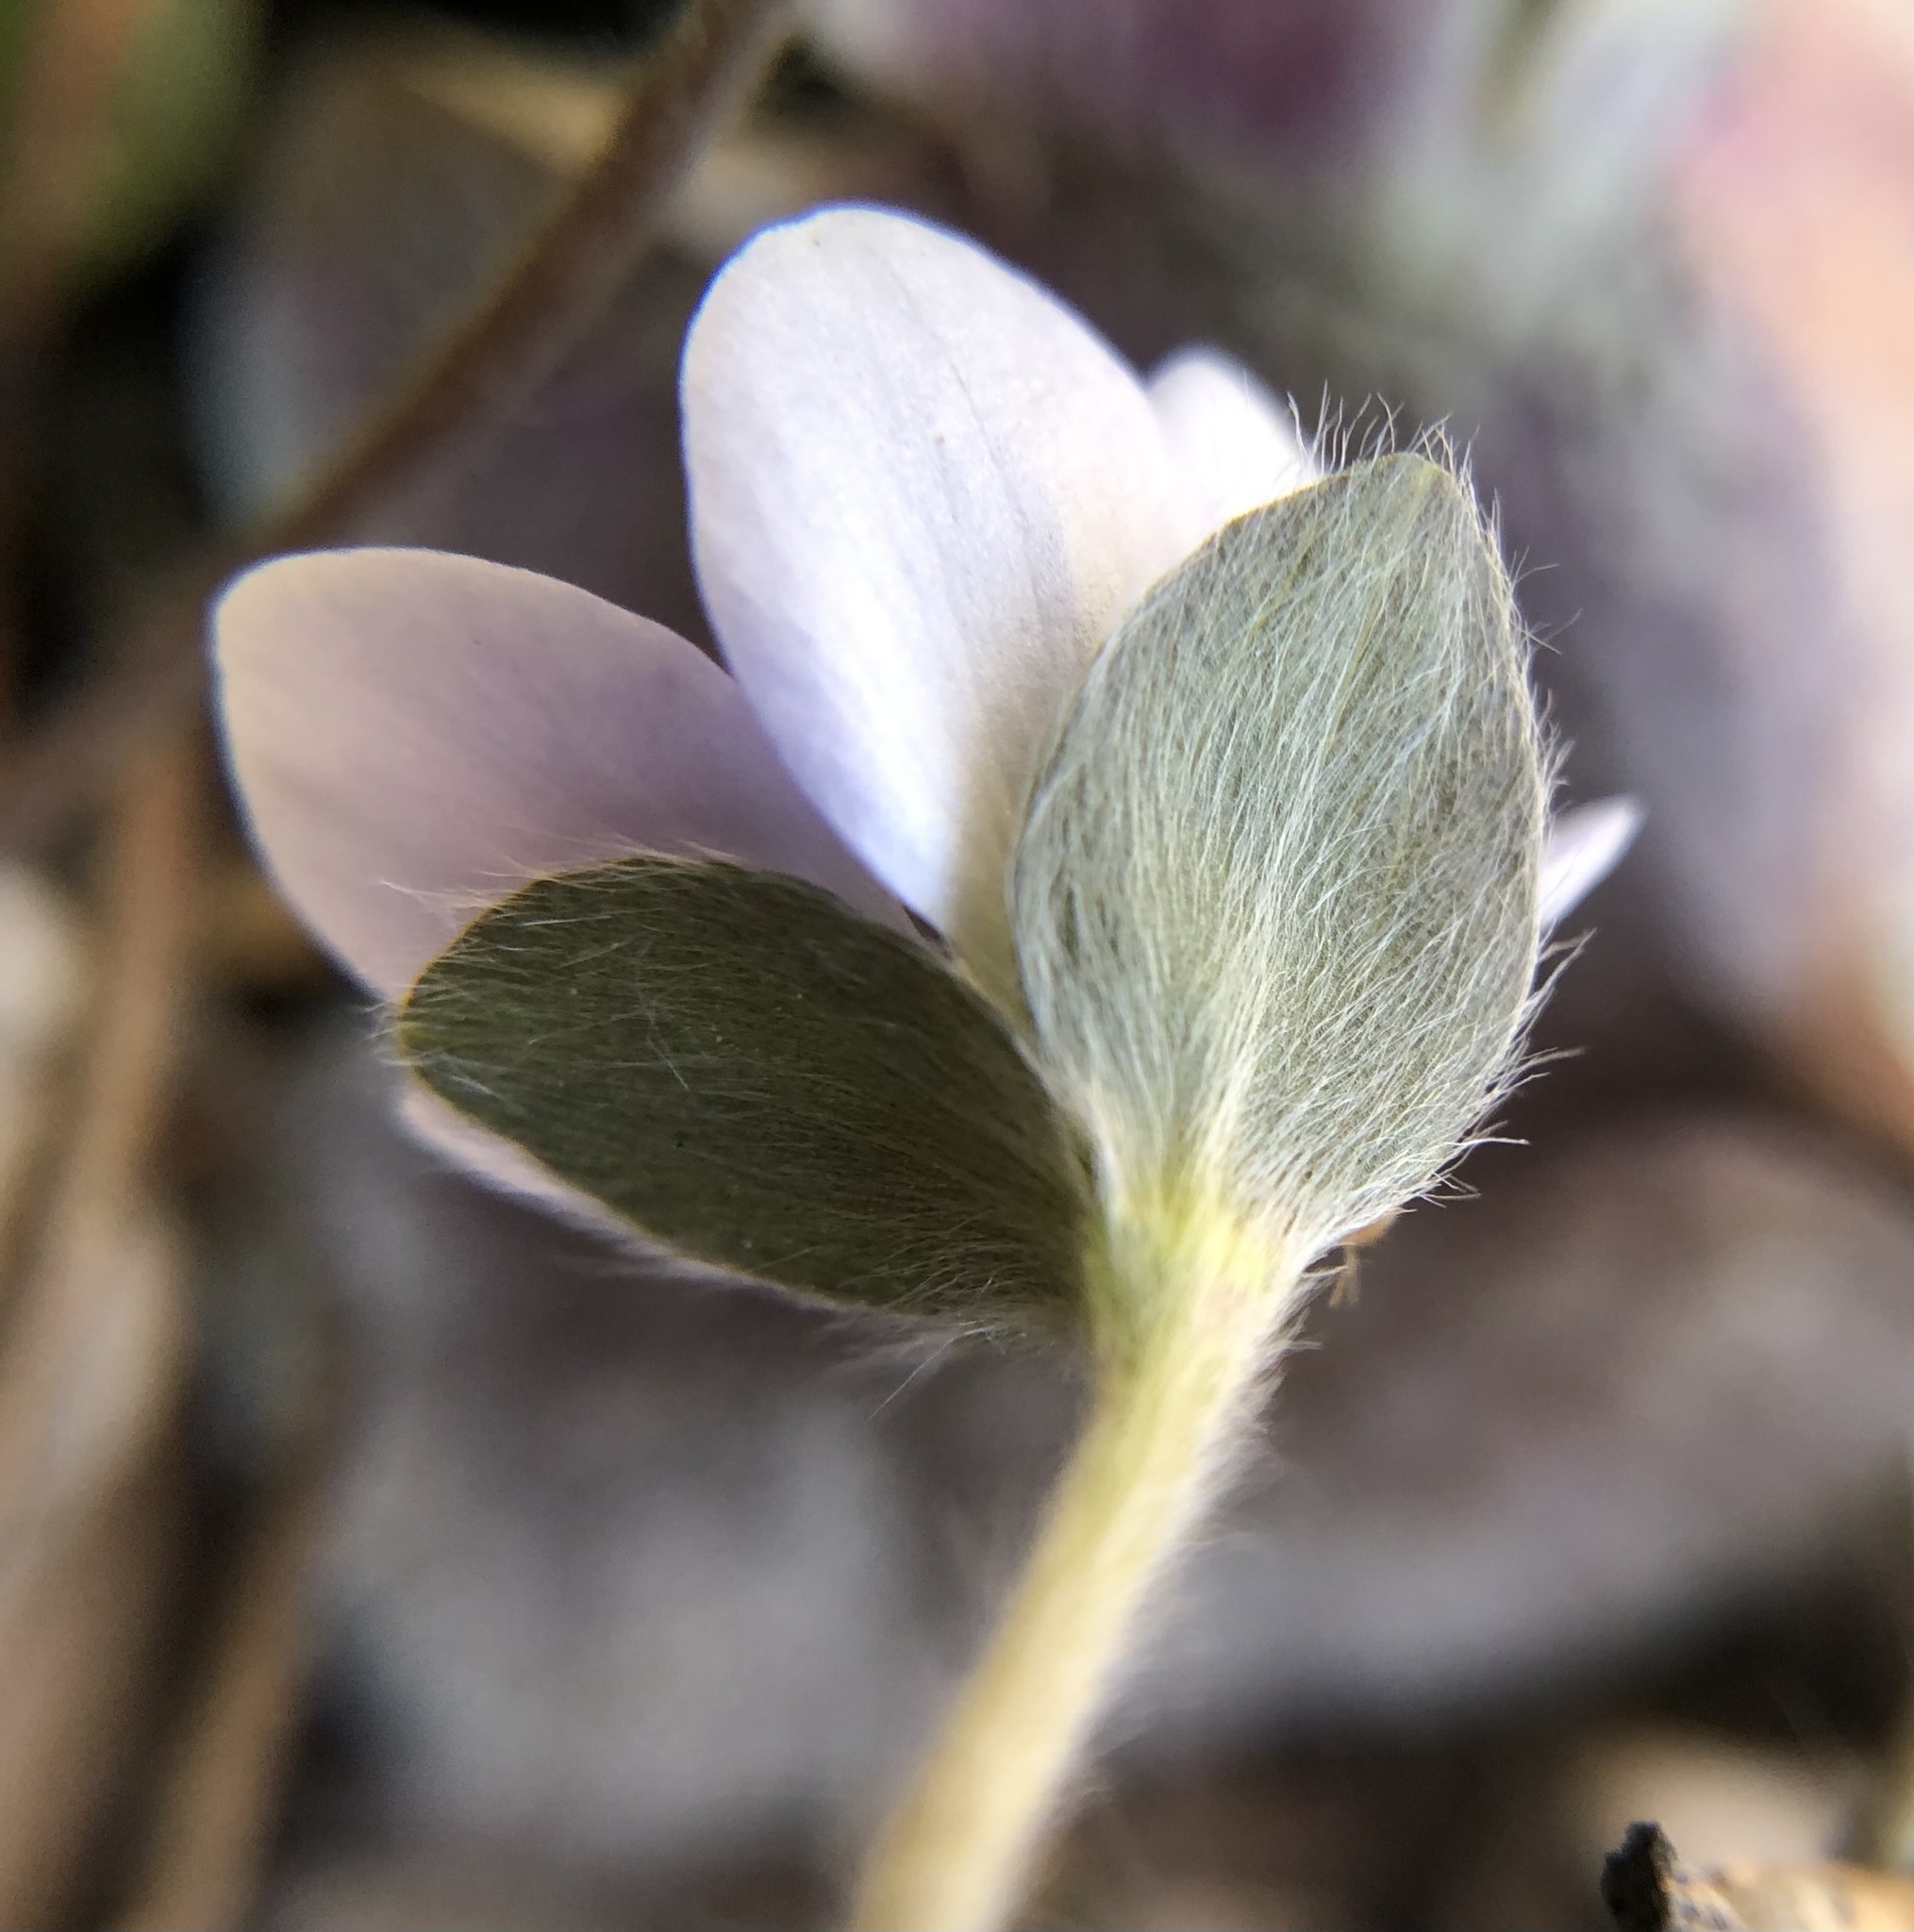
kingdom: Plantae
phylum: Tracheophyta
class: Magnoliopsida
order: Ranunculales
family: Ranunculaceae
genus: Hepatica
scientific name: Hepatica americana
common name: American hepatica
